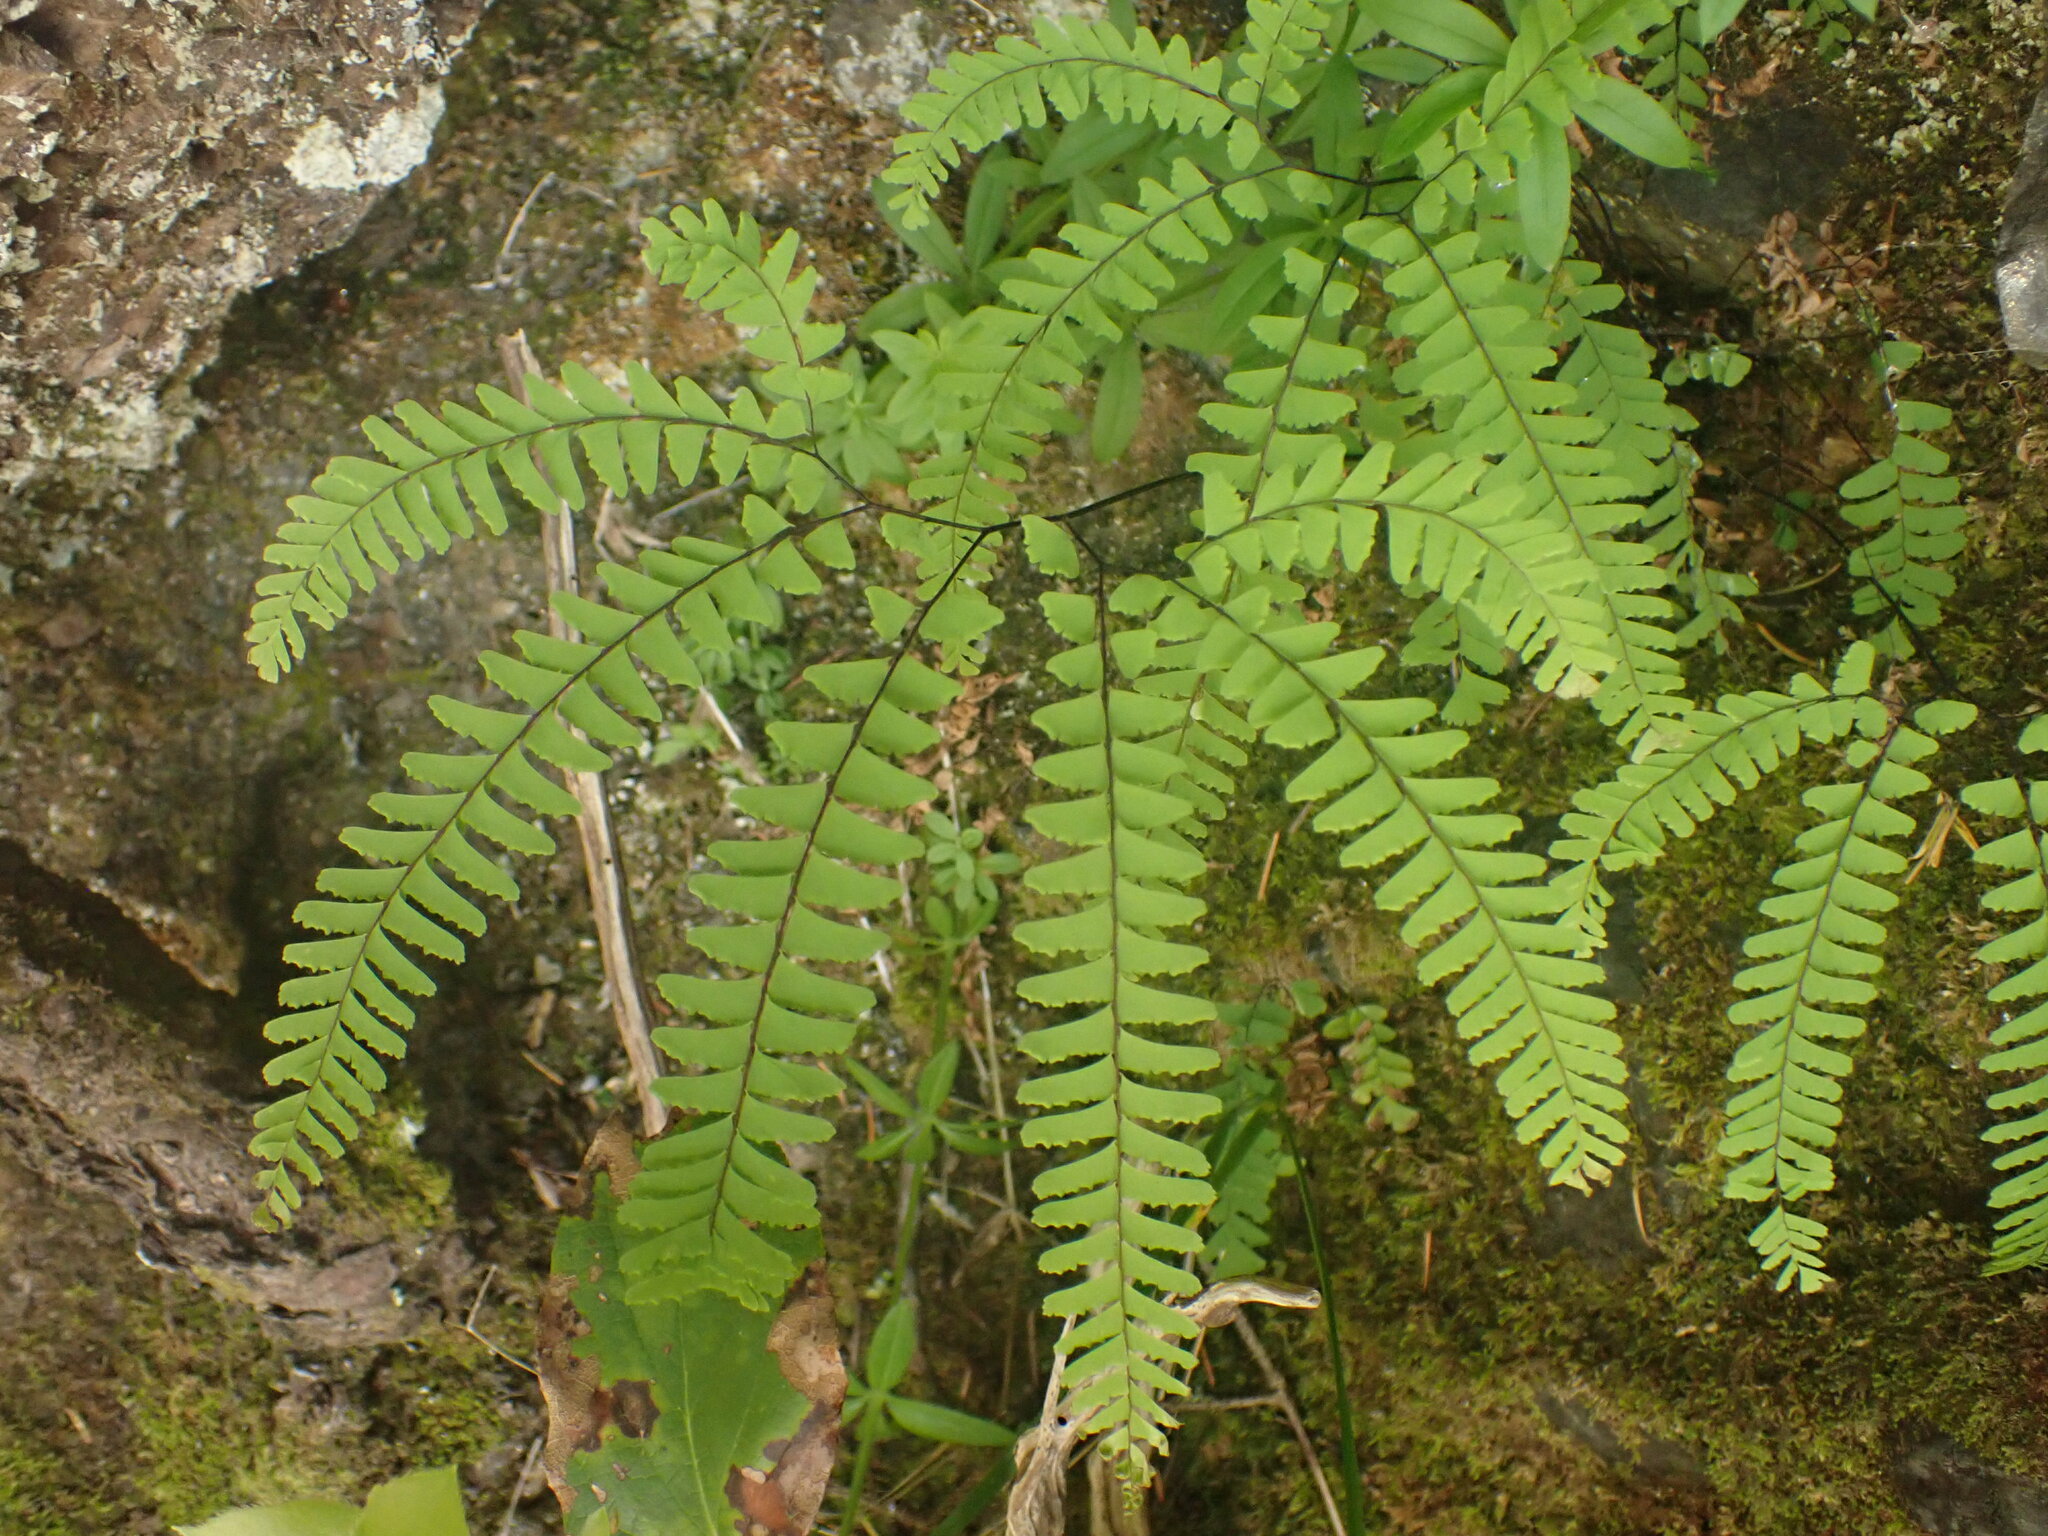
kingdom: Plantae
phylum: Tracheophyta
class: Polypodiopsida
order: Polypodiales
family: Pteridaceae
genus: Adiantum
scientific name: Adiantum aleuticum
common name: Aleutian maidenhair fern
